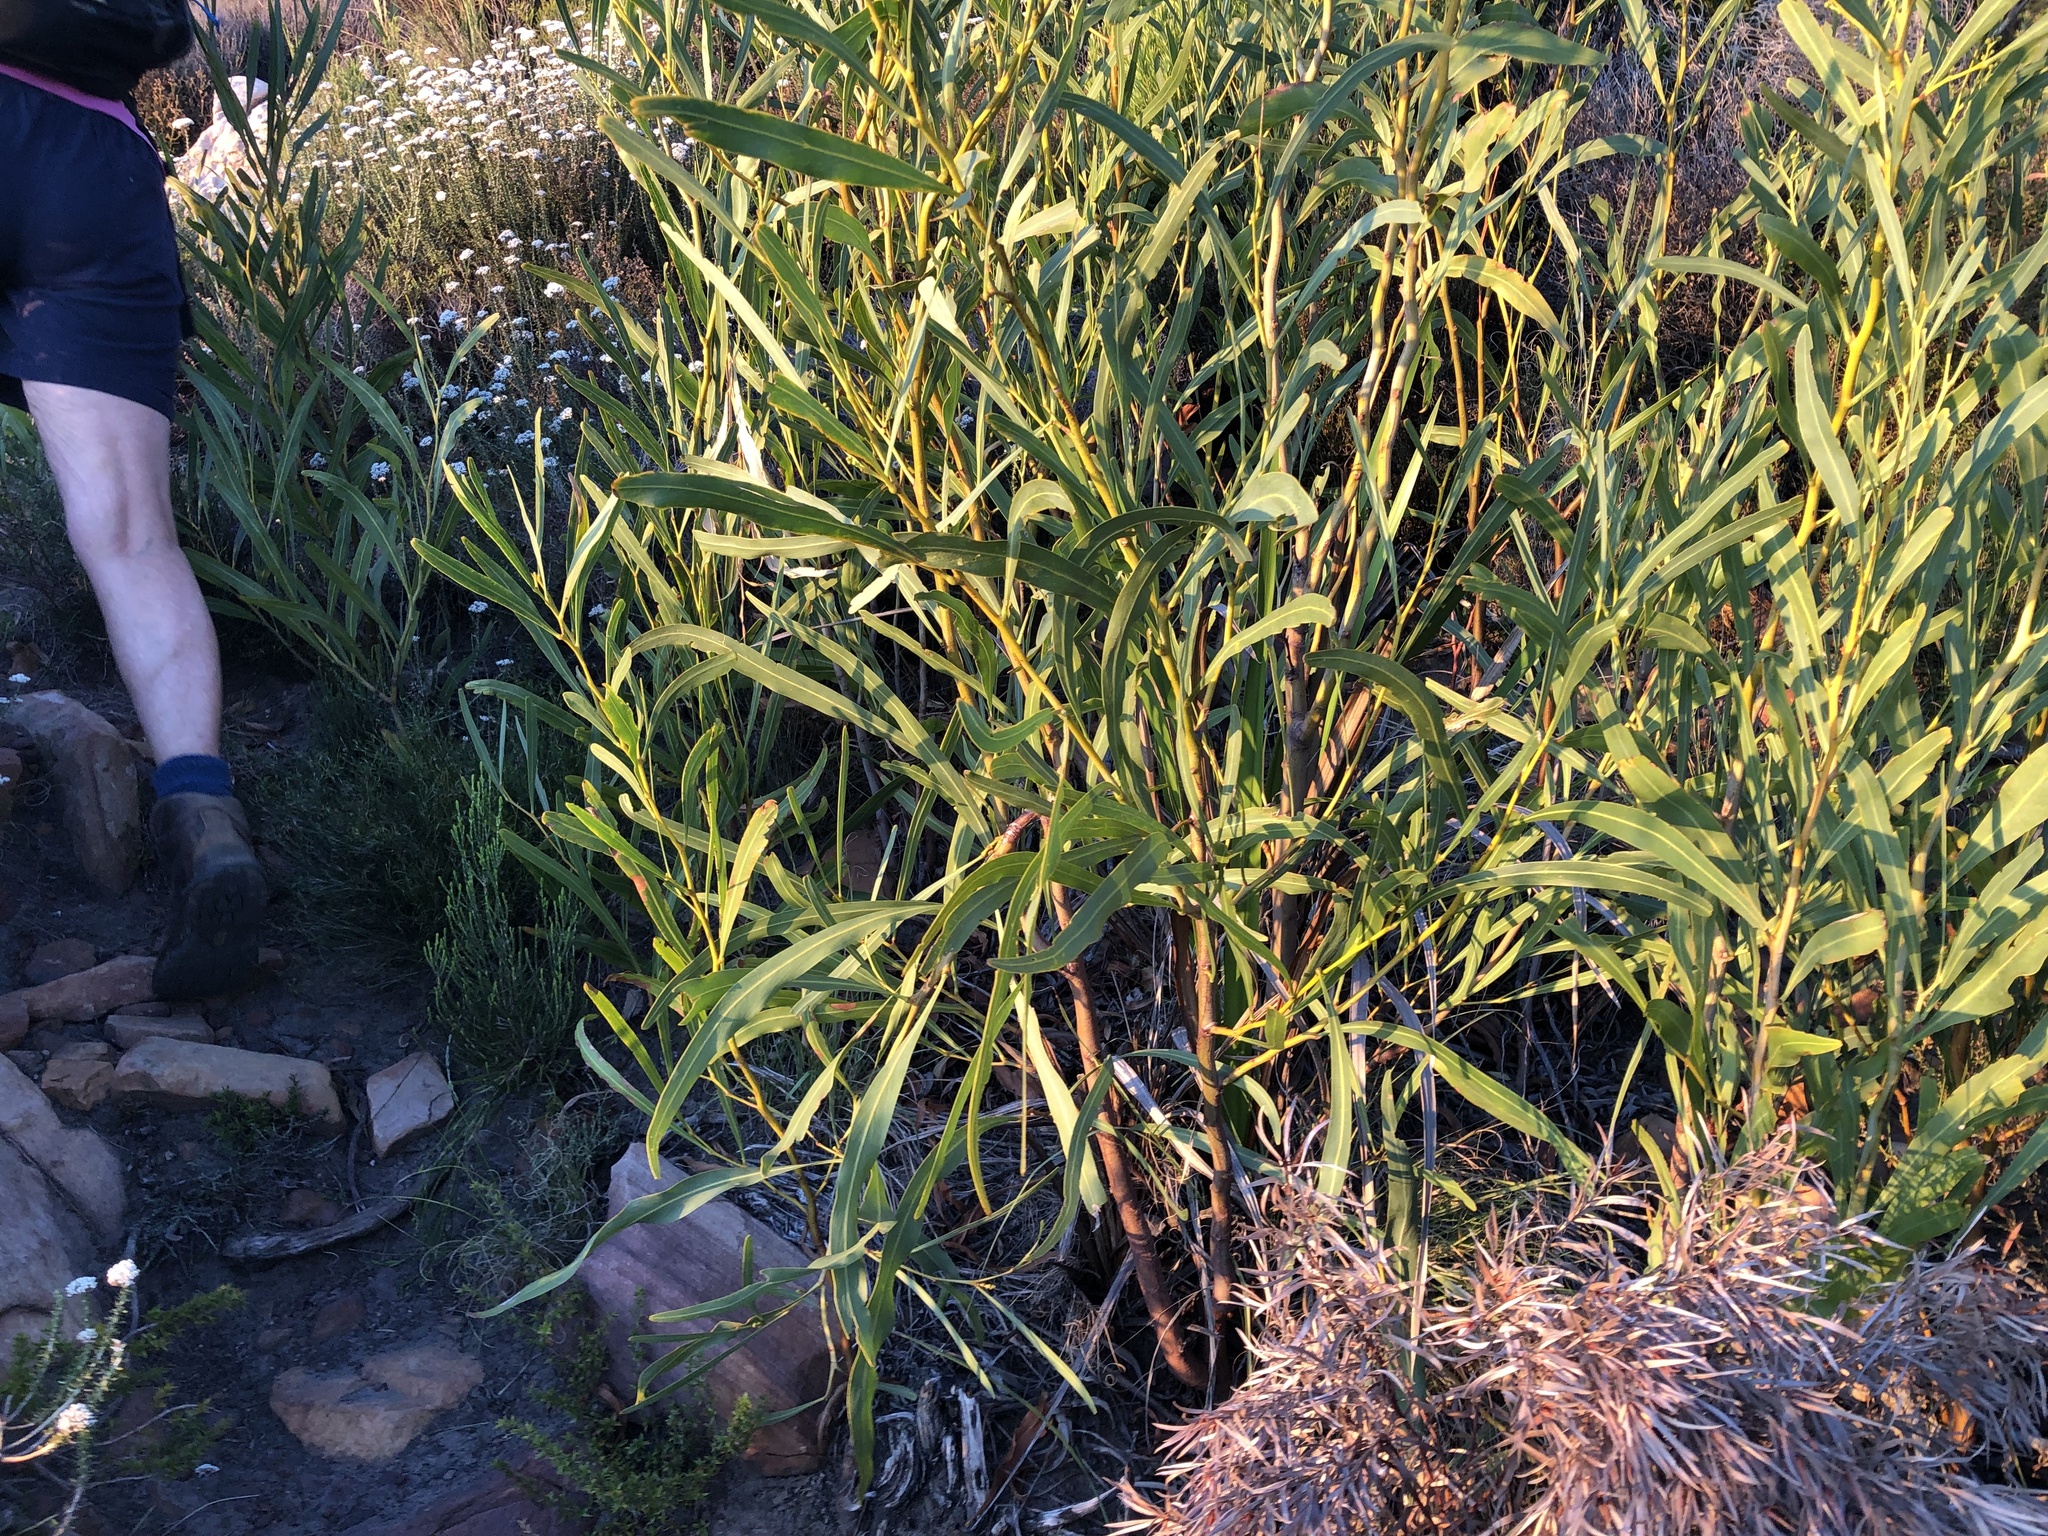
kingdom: Plantae
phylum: Tracheophyta
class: Magnoliopsida
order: Fabales
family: Fabaceae
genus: Acacia
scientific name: Acacia saligna
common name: Orange wattle
